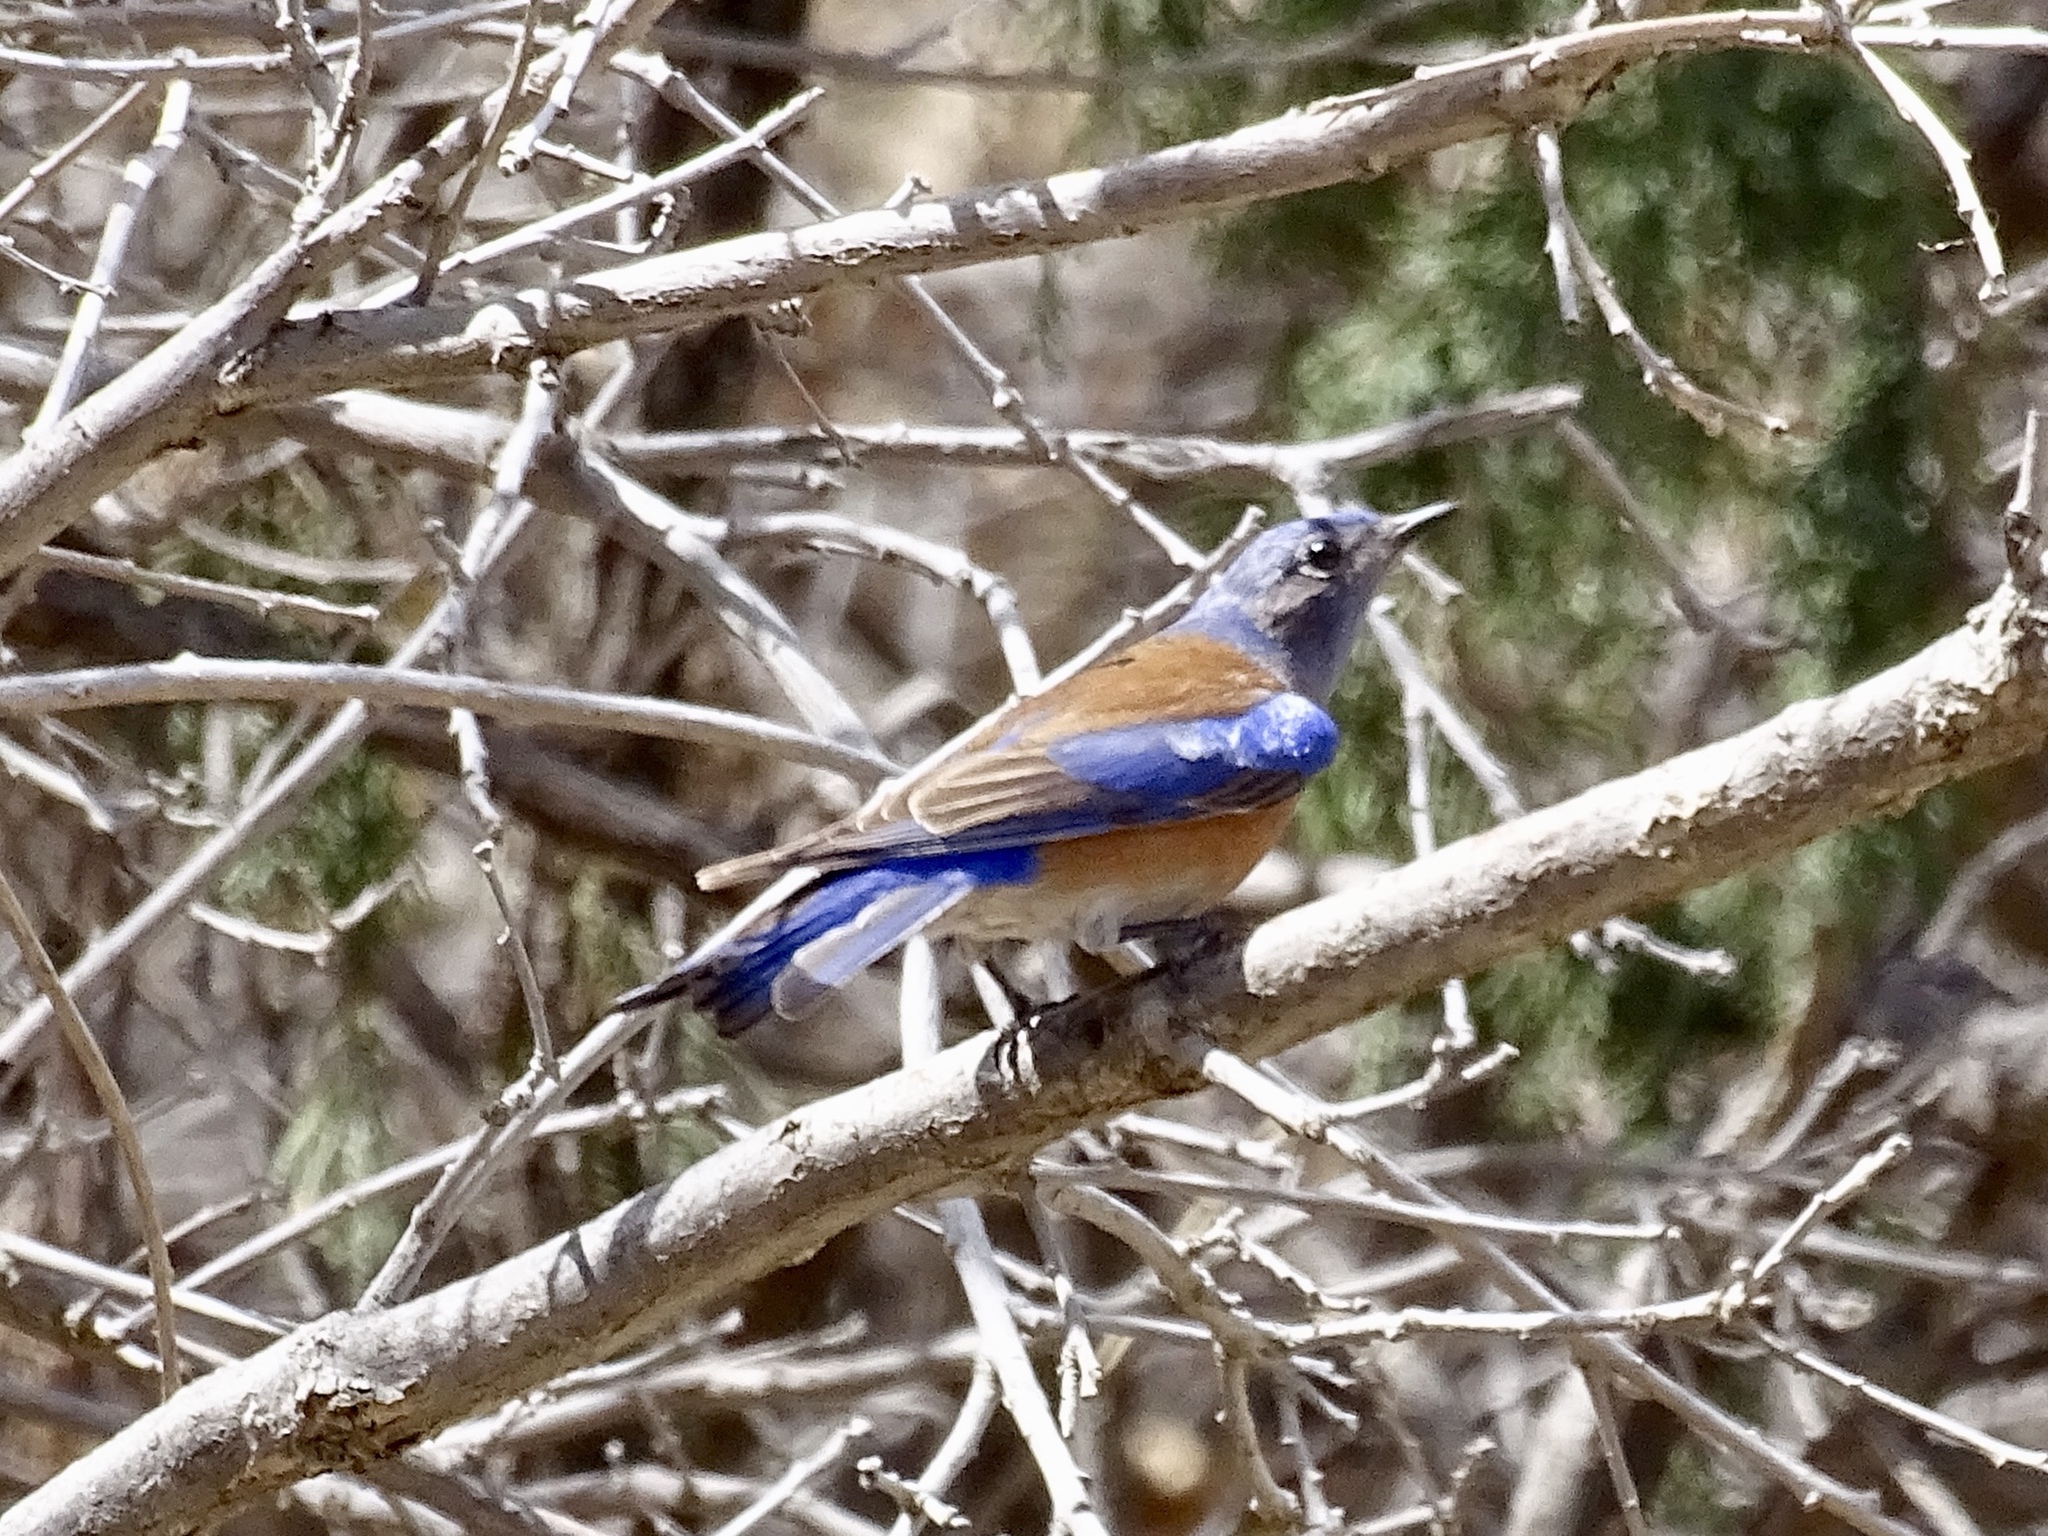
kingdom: Animalia
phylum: Chordata
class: Aves
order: Passeriformes
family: Turdidae
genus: Sialia
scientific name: Sialia mexicana
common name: Western bluebird
